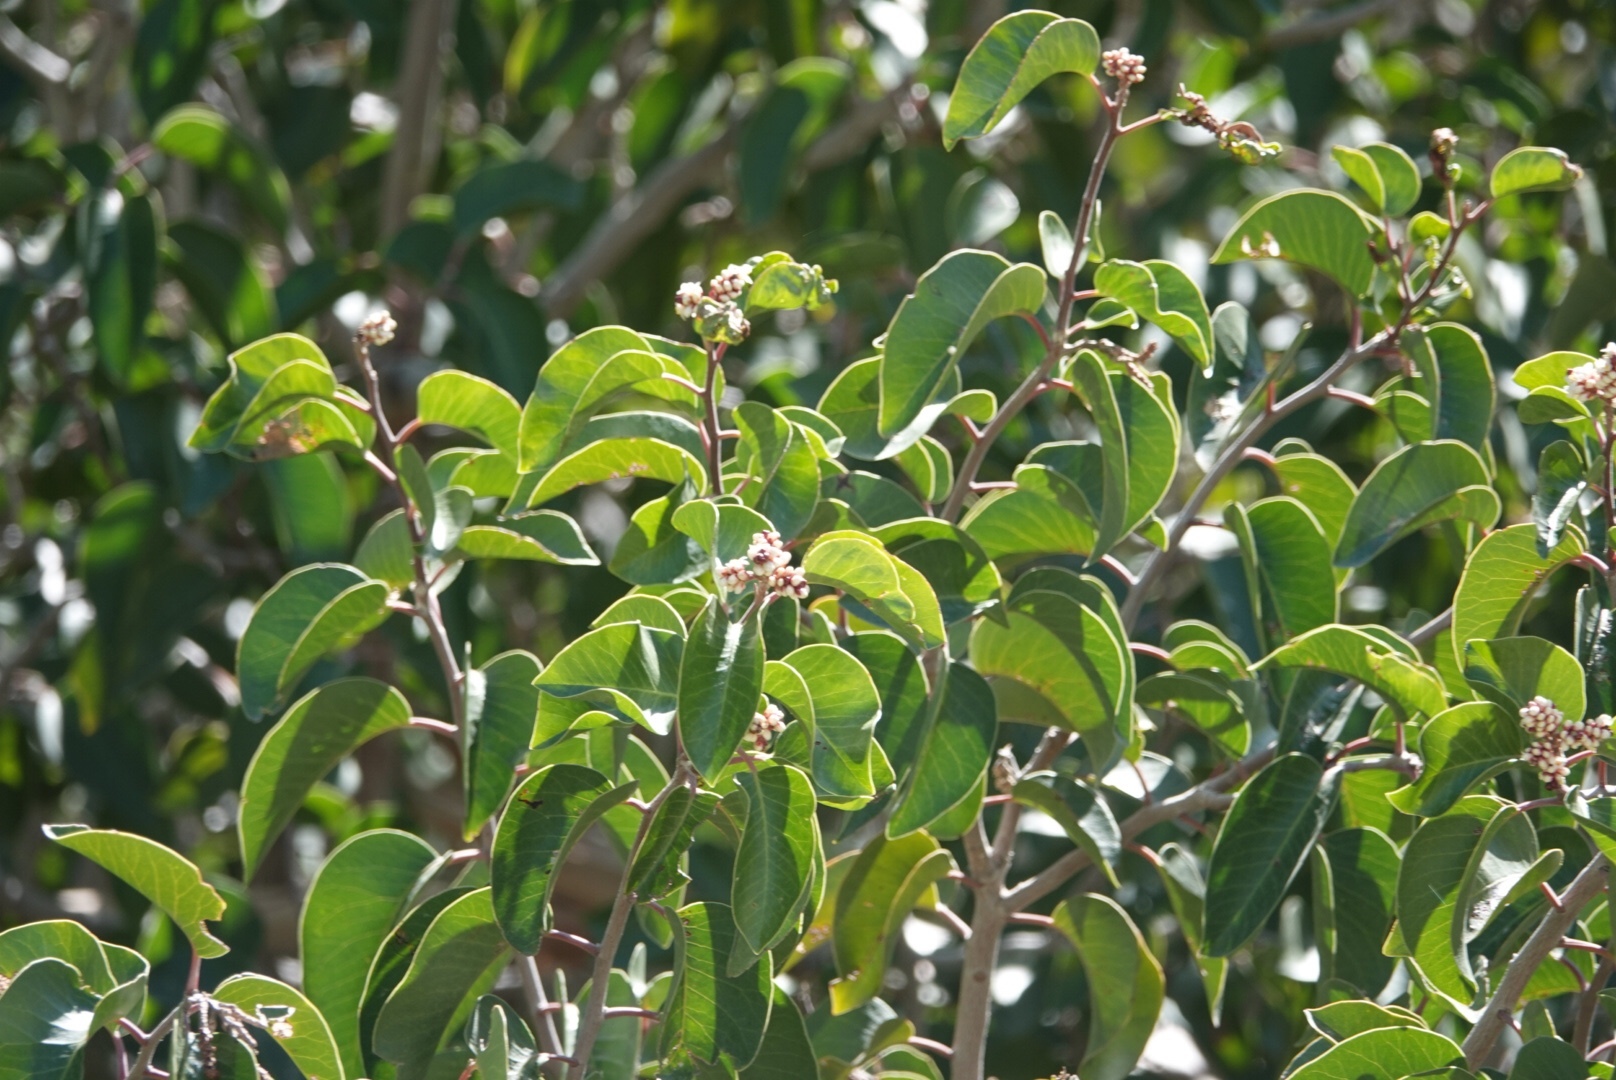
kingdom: Plantae
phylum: Tracheophyta
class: Magnoliopsida
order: Sapindales
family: Anacardiaceae
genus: Rhus
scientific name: Rhus ovata
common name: Sugar sumac
